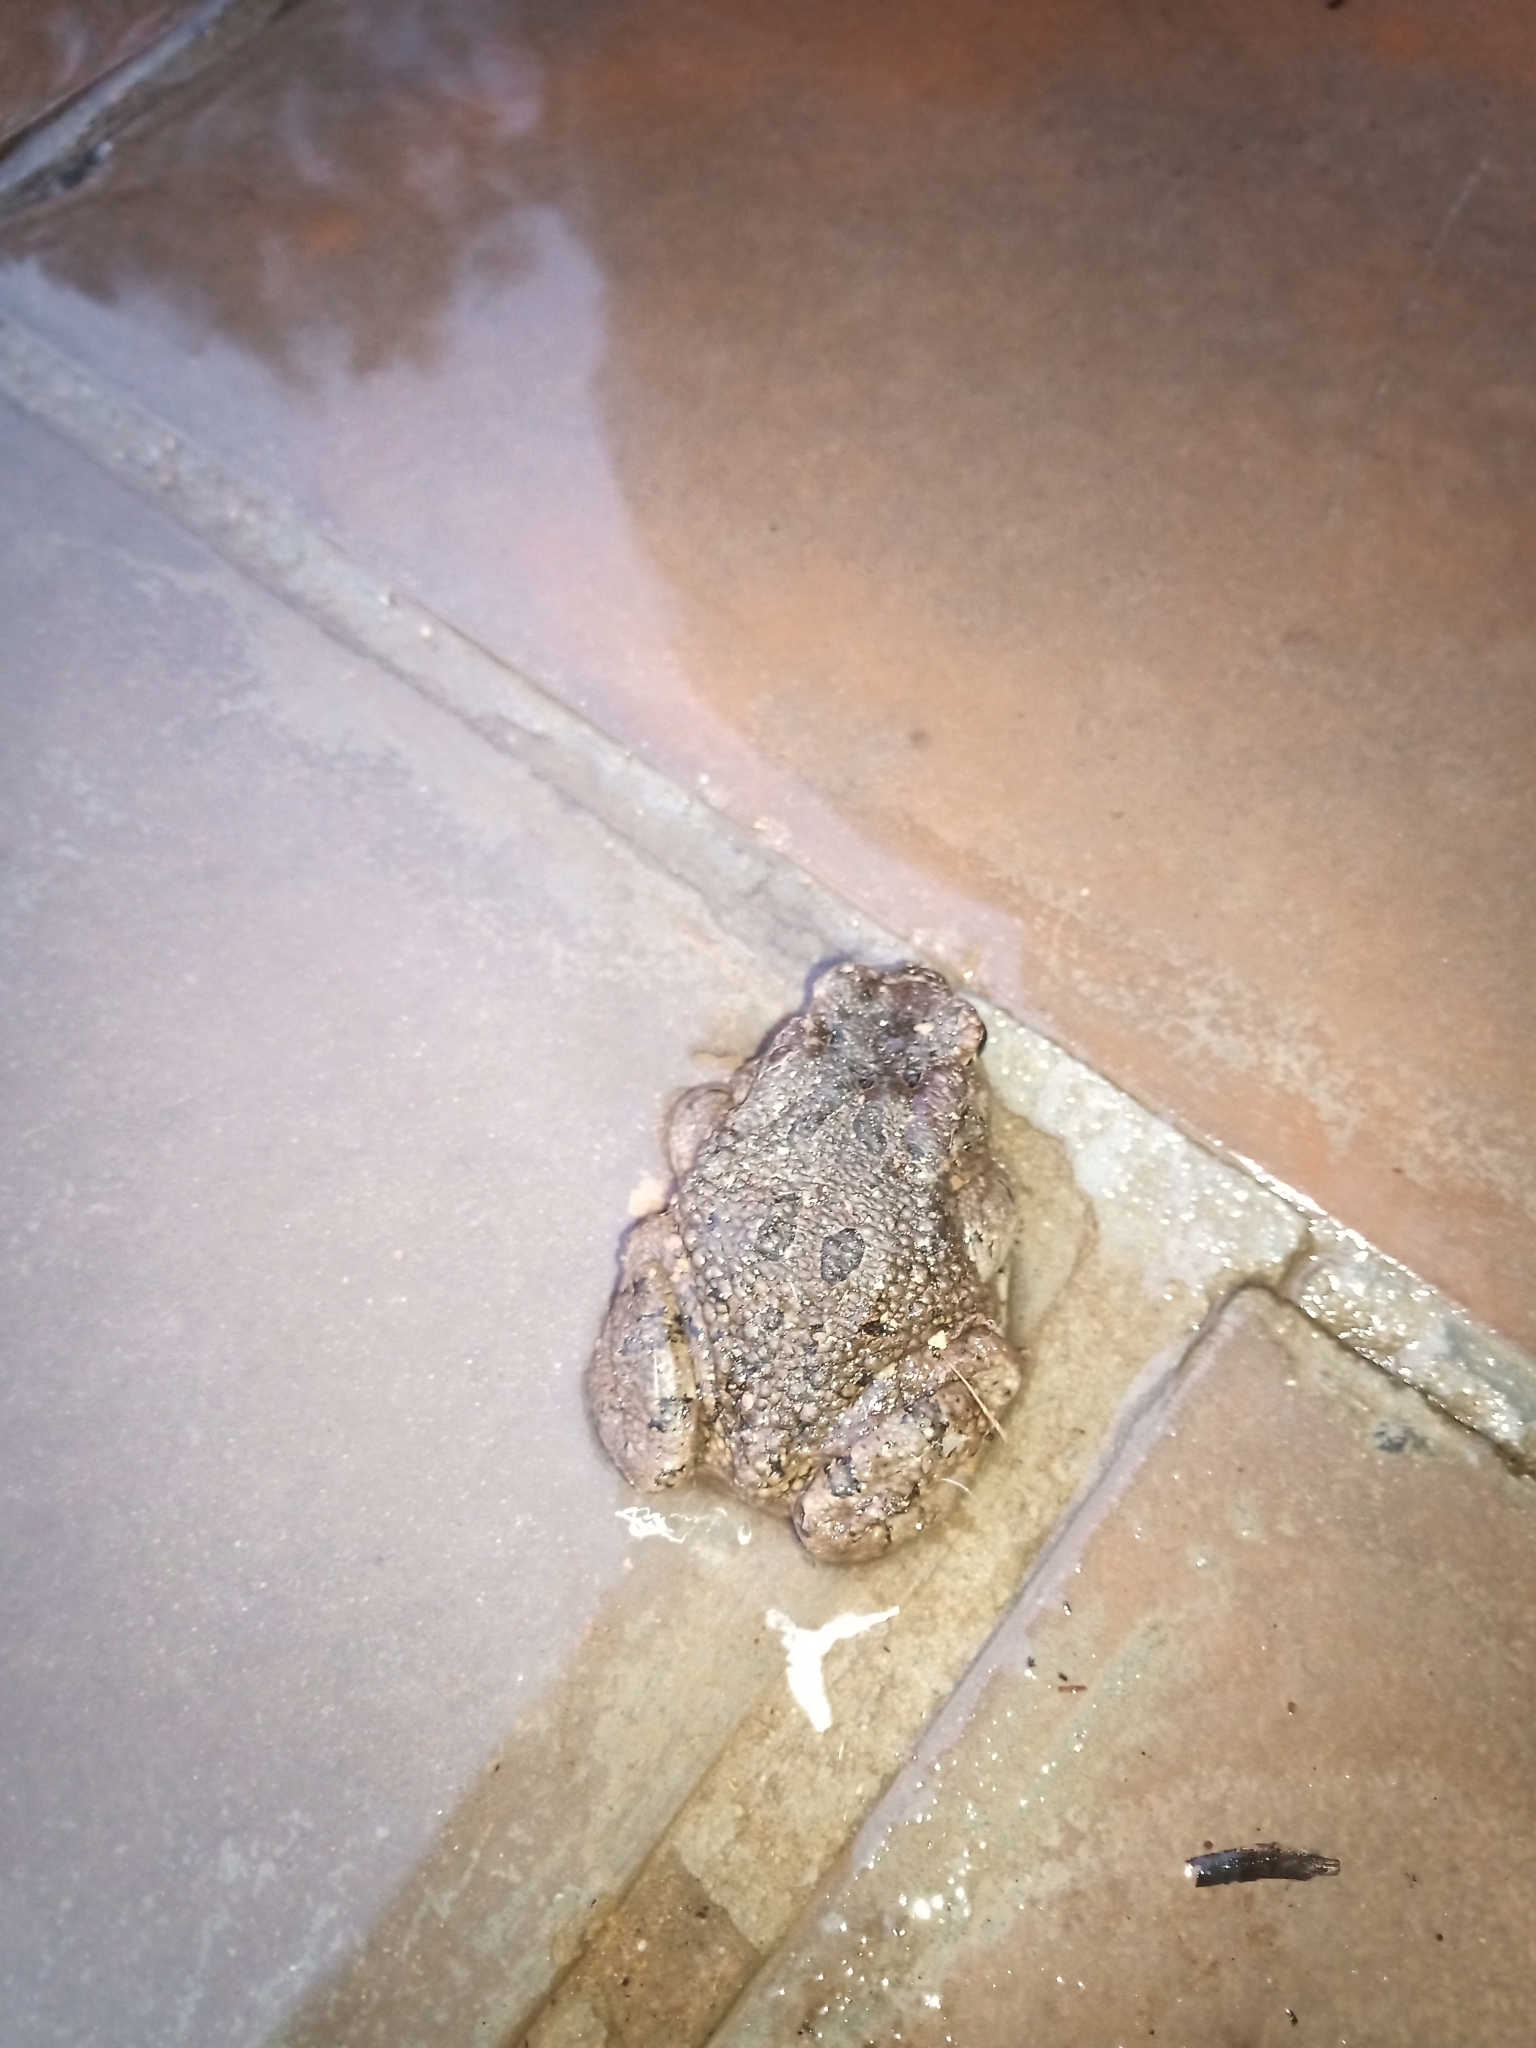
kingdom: Animalia
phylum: Chordata
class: Amphibia
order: Anura
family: Bufonidae
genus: Sclerophrys
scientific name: Sclerophrys capensis
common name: Ranger’s toad
